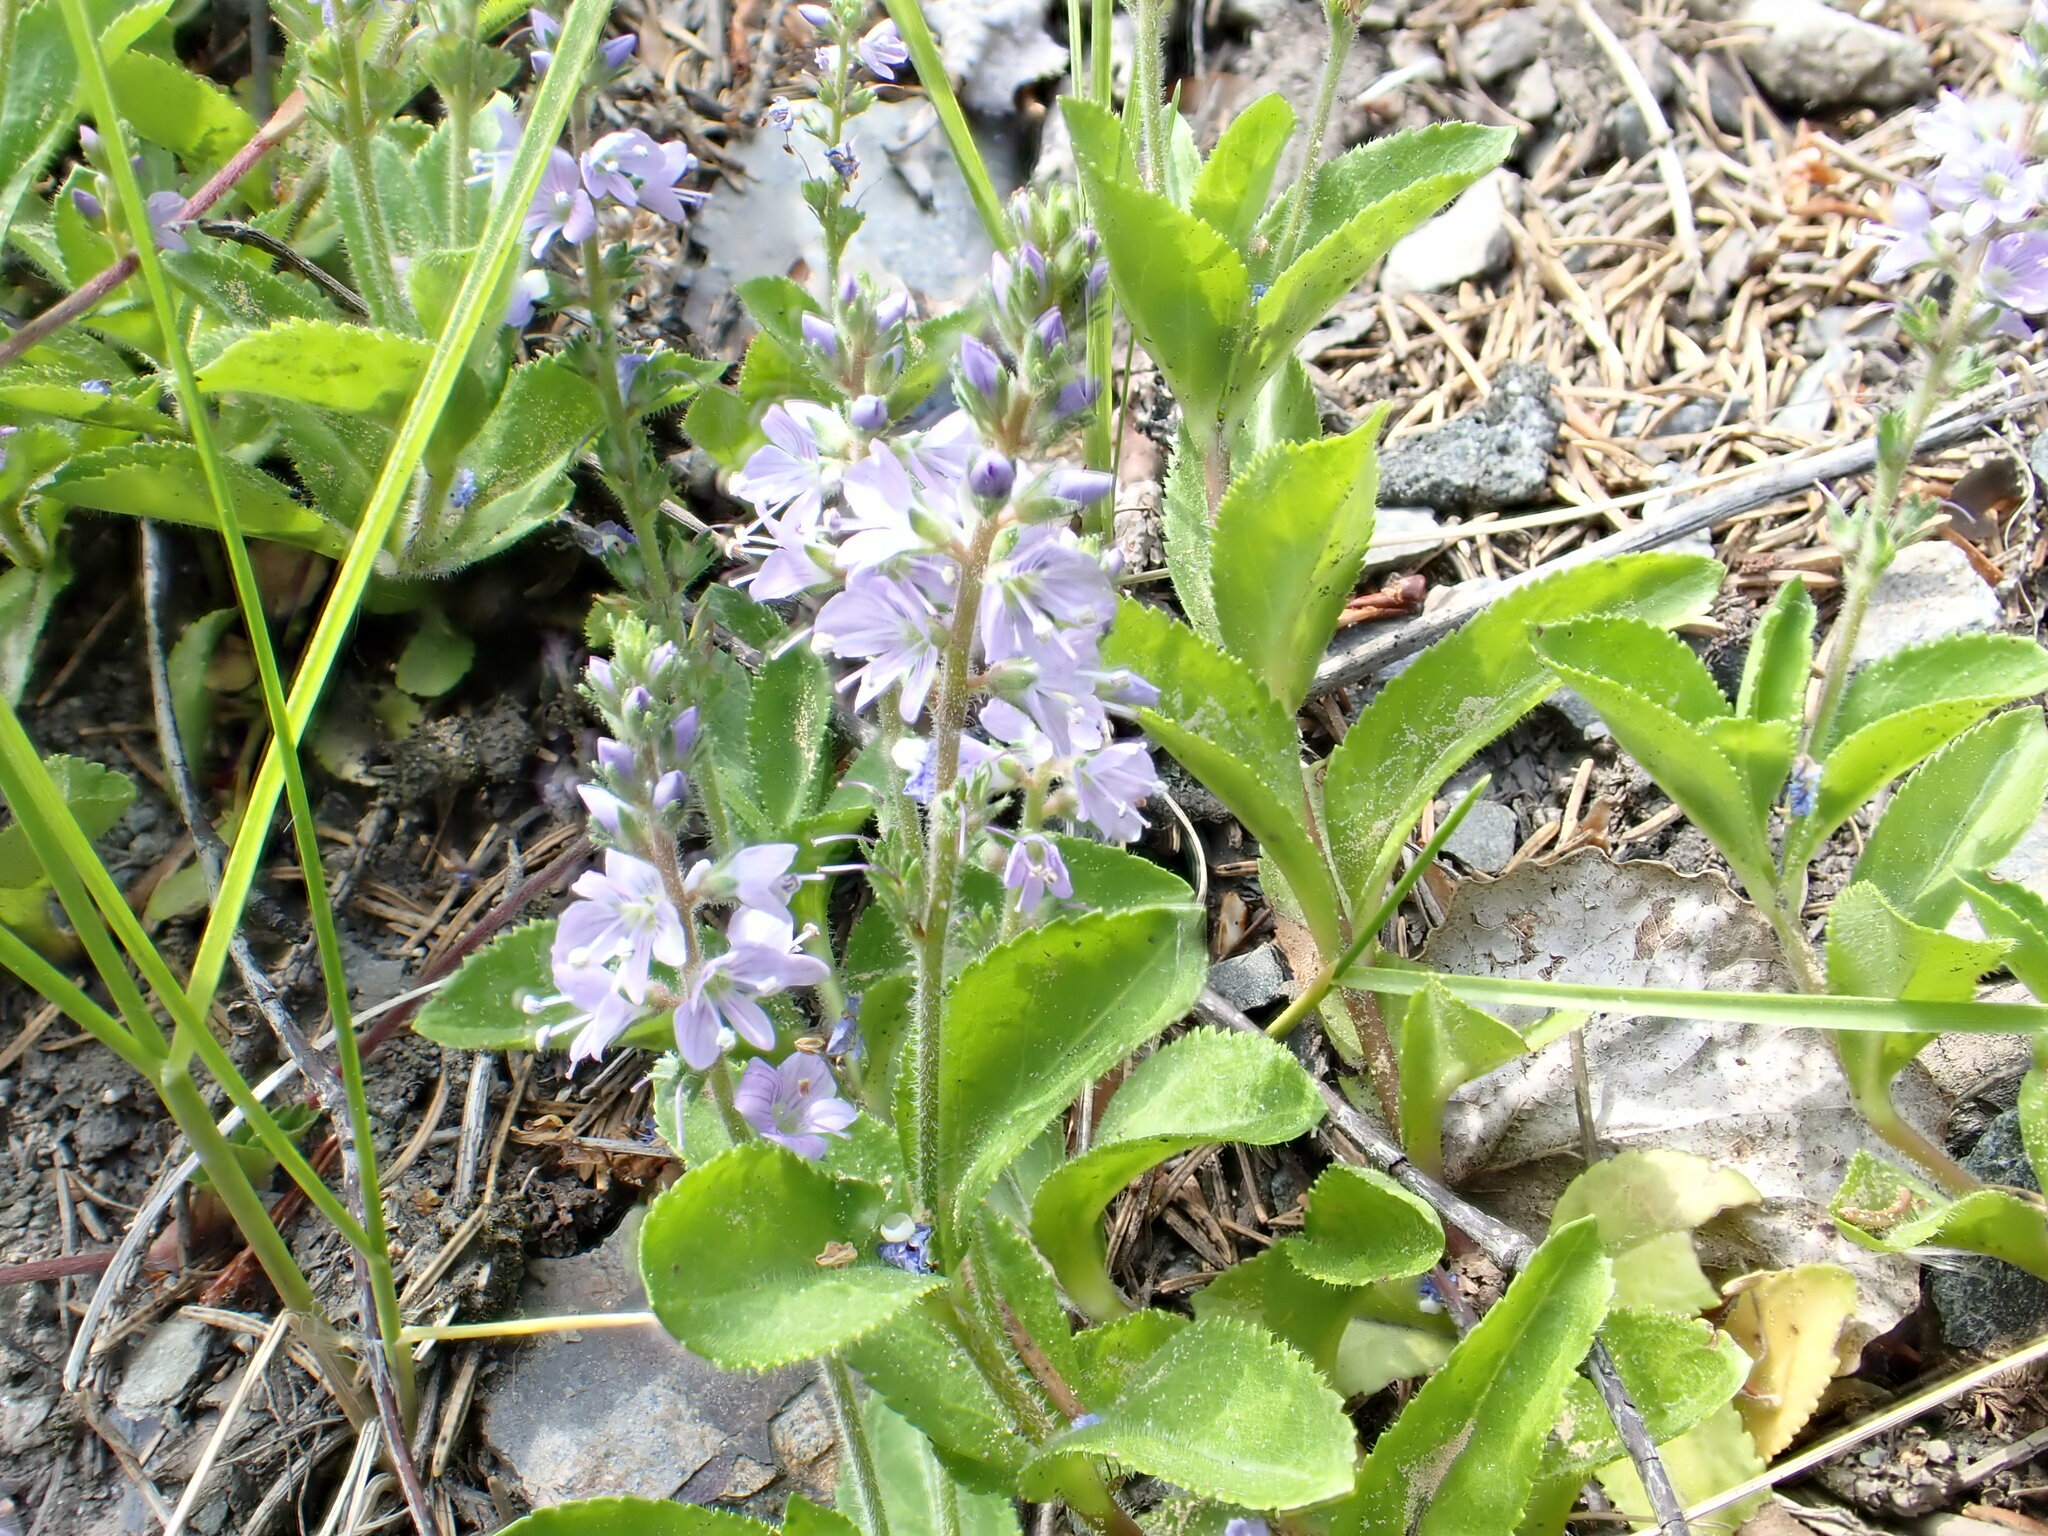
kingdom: Plantae
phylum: Tracheophyta
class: Magnoliopsida
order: Lamiales
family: Plantaginaceae
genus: Veronica
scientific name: Veronica officinalis
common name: Common speedwell
